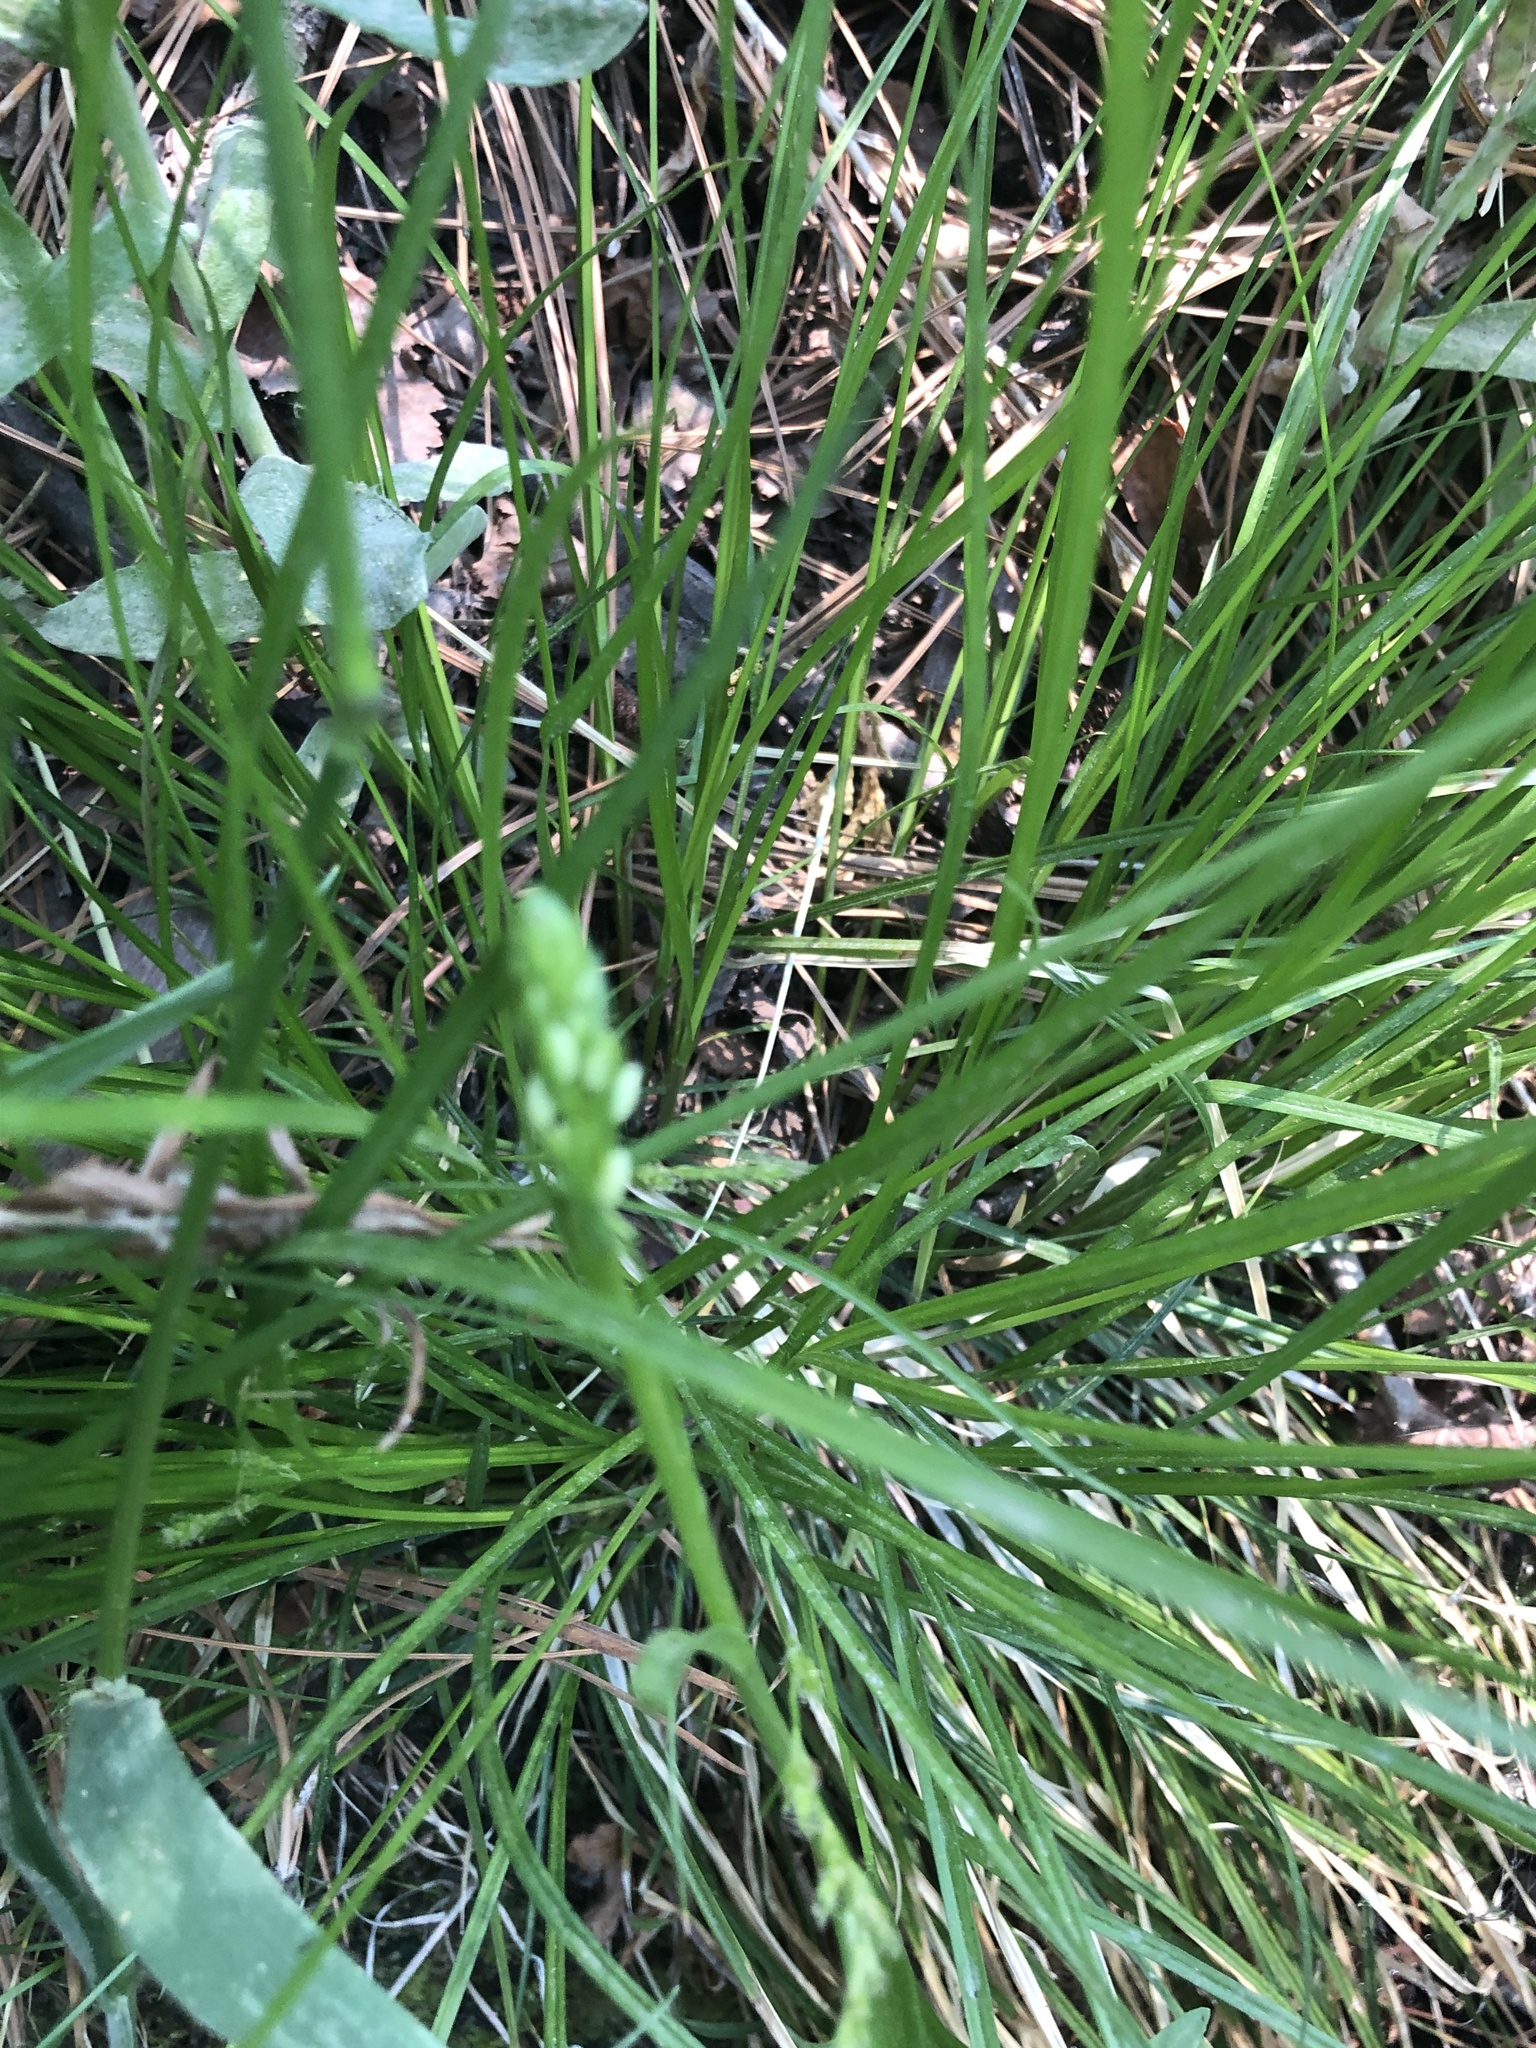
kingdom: Plantae
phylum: Tracheophyta
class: Liliopsida
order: Asparagales
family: Orchidaceae
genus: Platanthera
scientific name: Platanthera dilatata
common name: Bog candles
